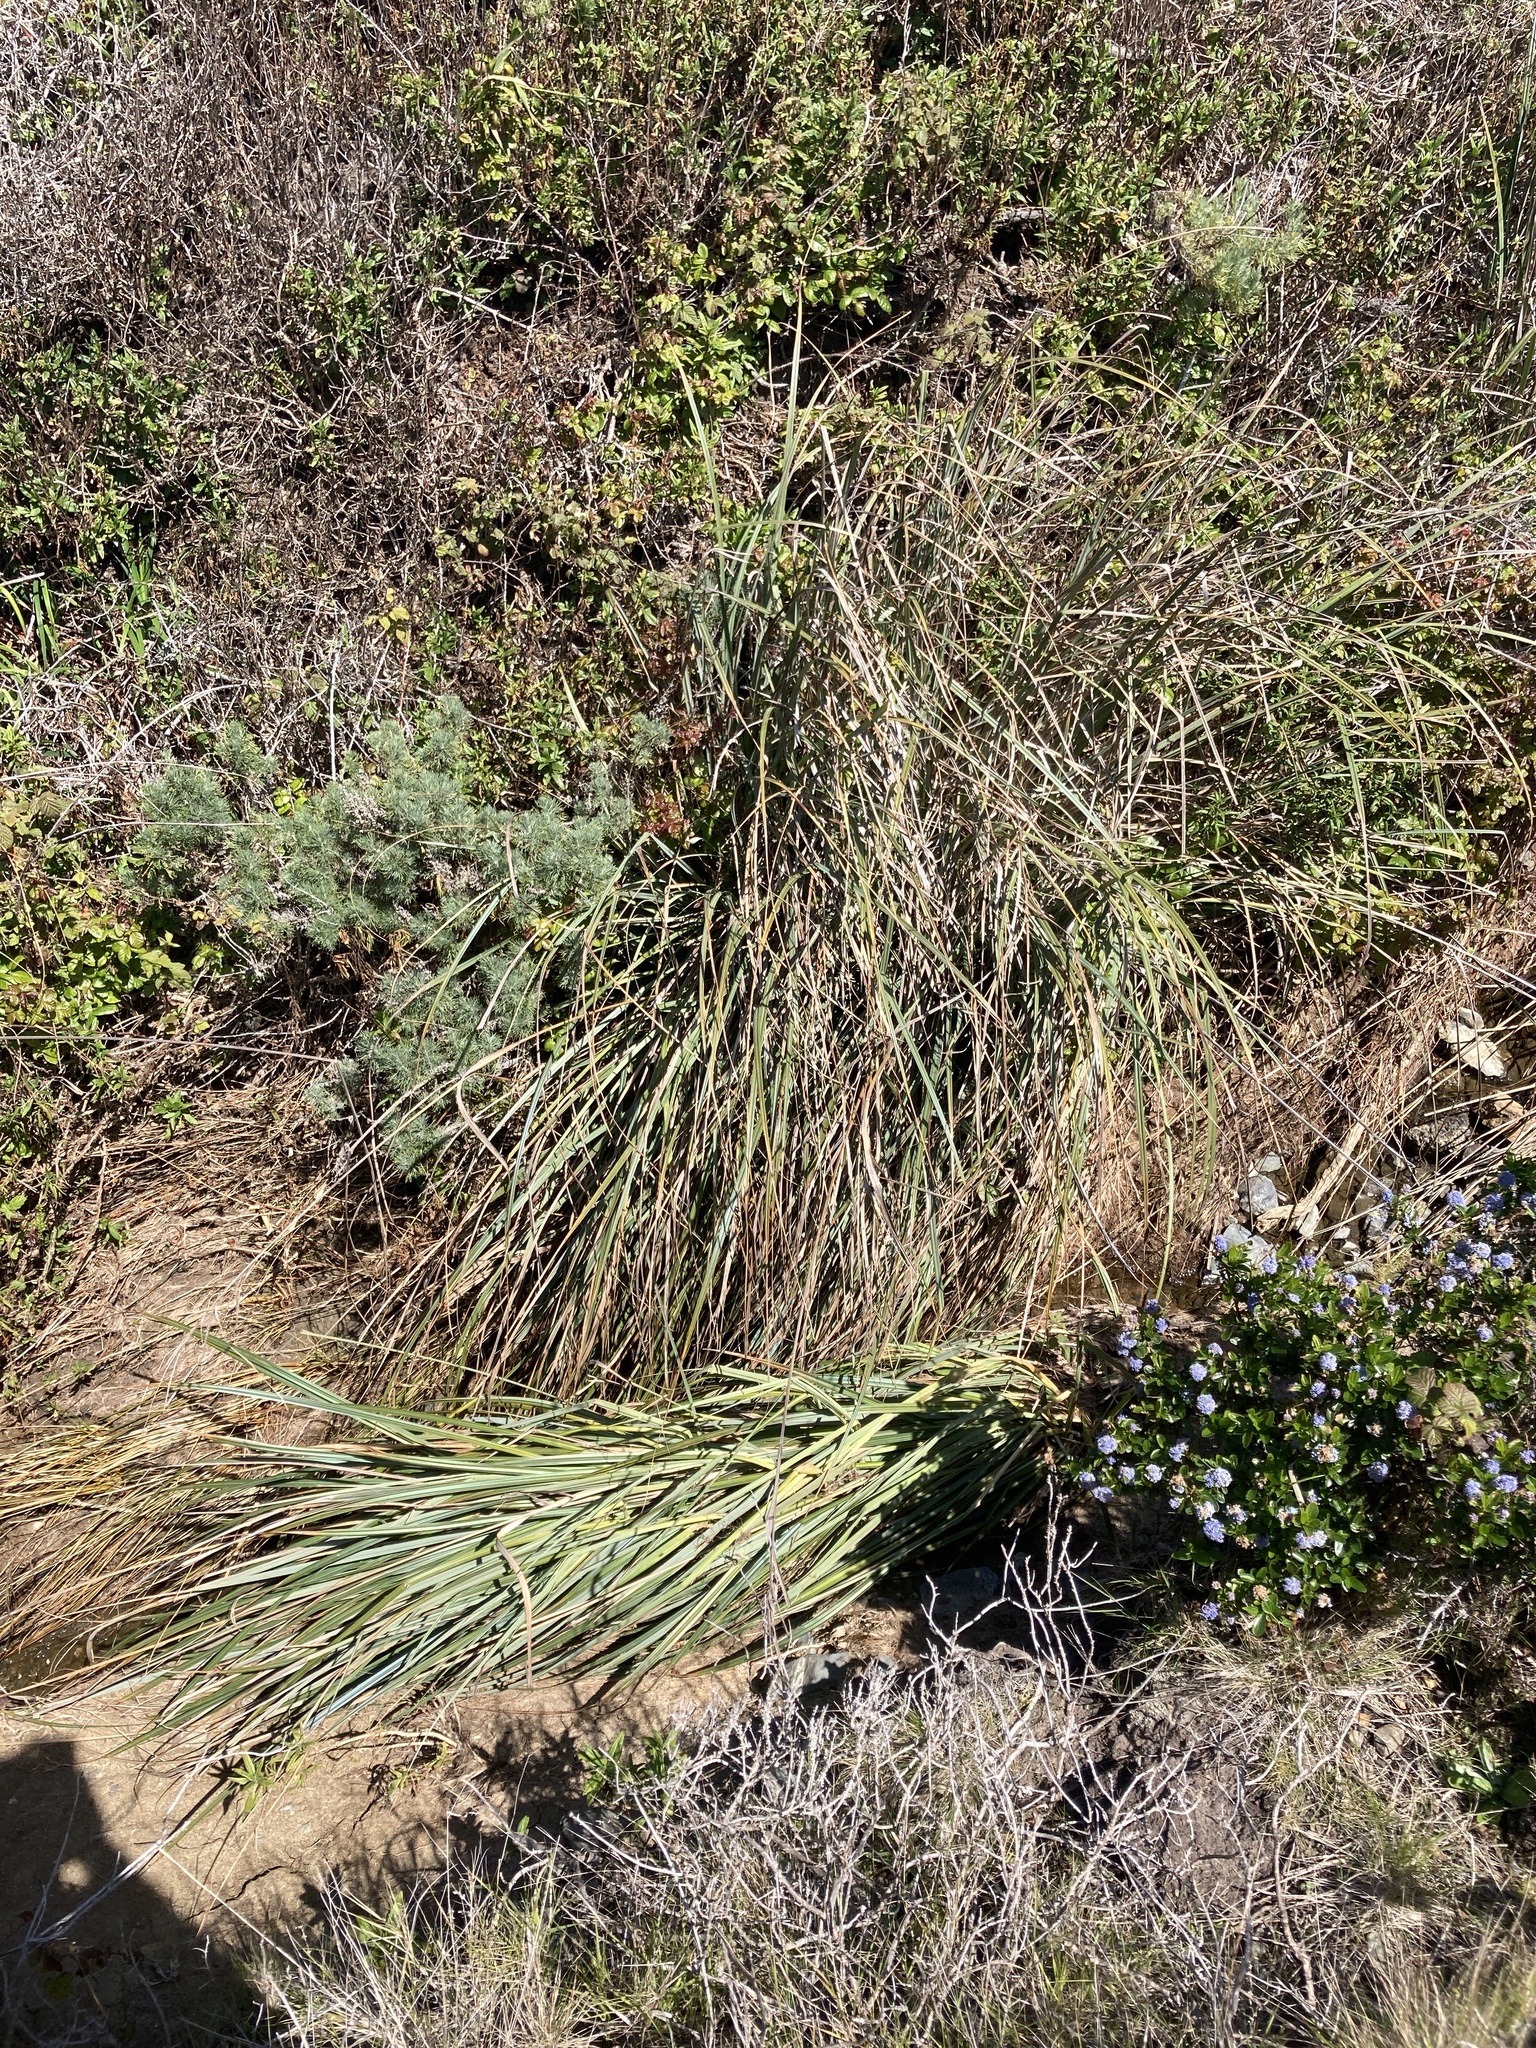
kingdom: Plantae
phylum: Tracheophyta
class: Liliopsida
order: Poales
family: Cyperaceae
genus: Carex
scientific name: Carex spissa
